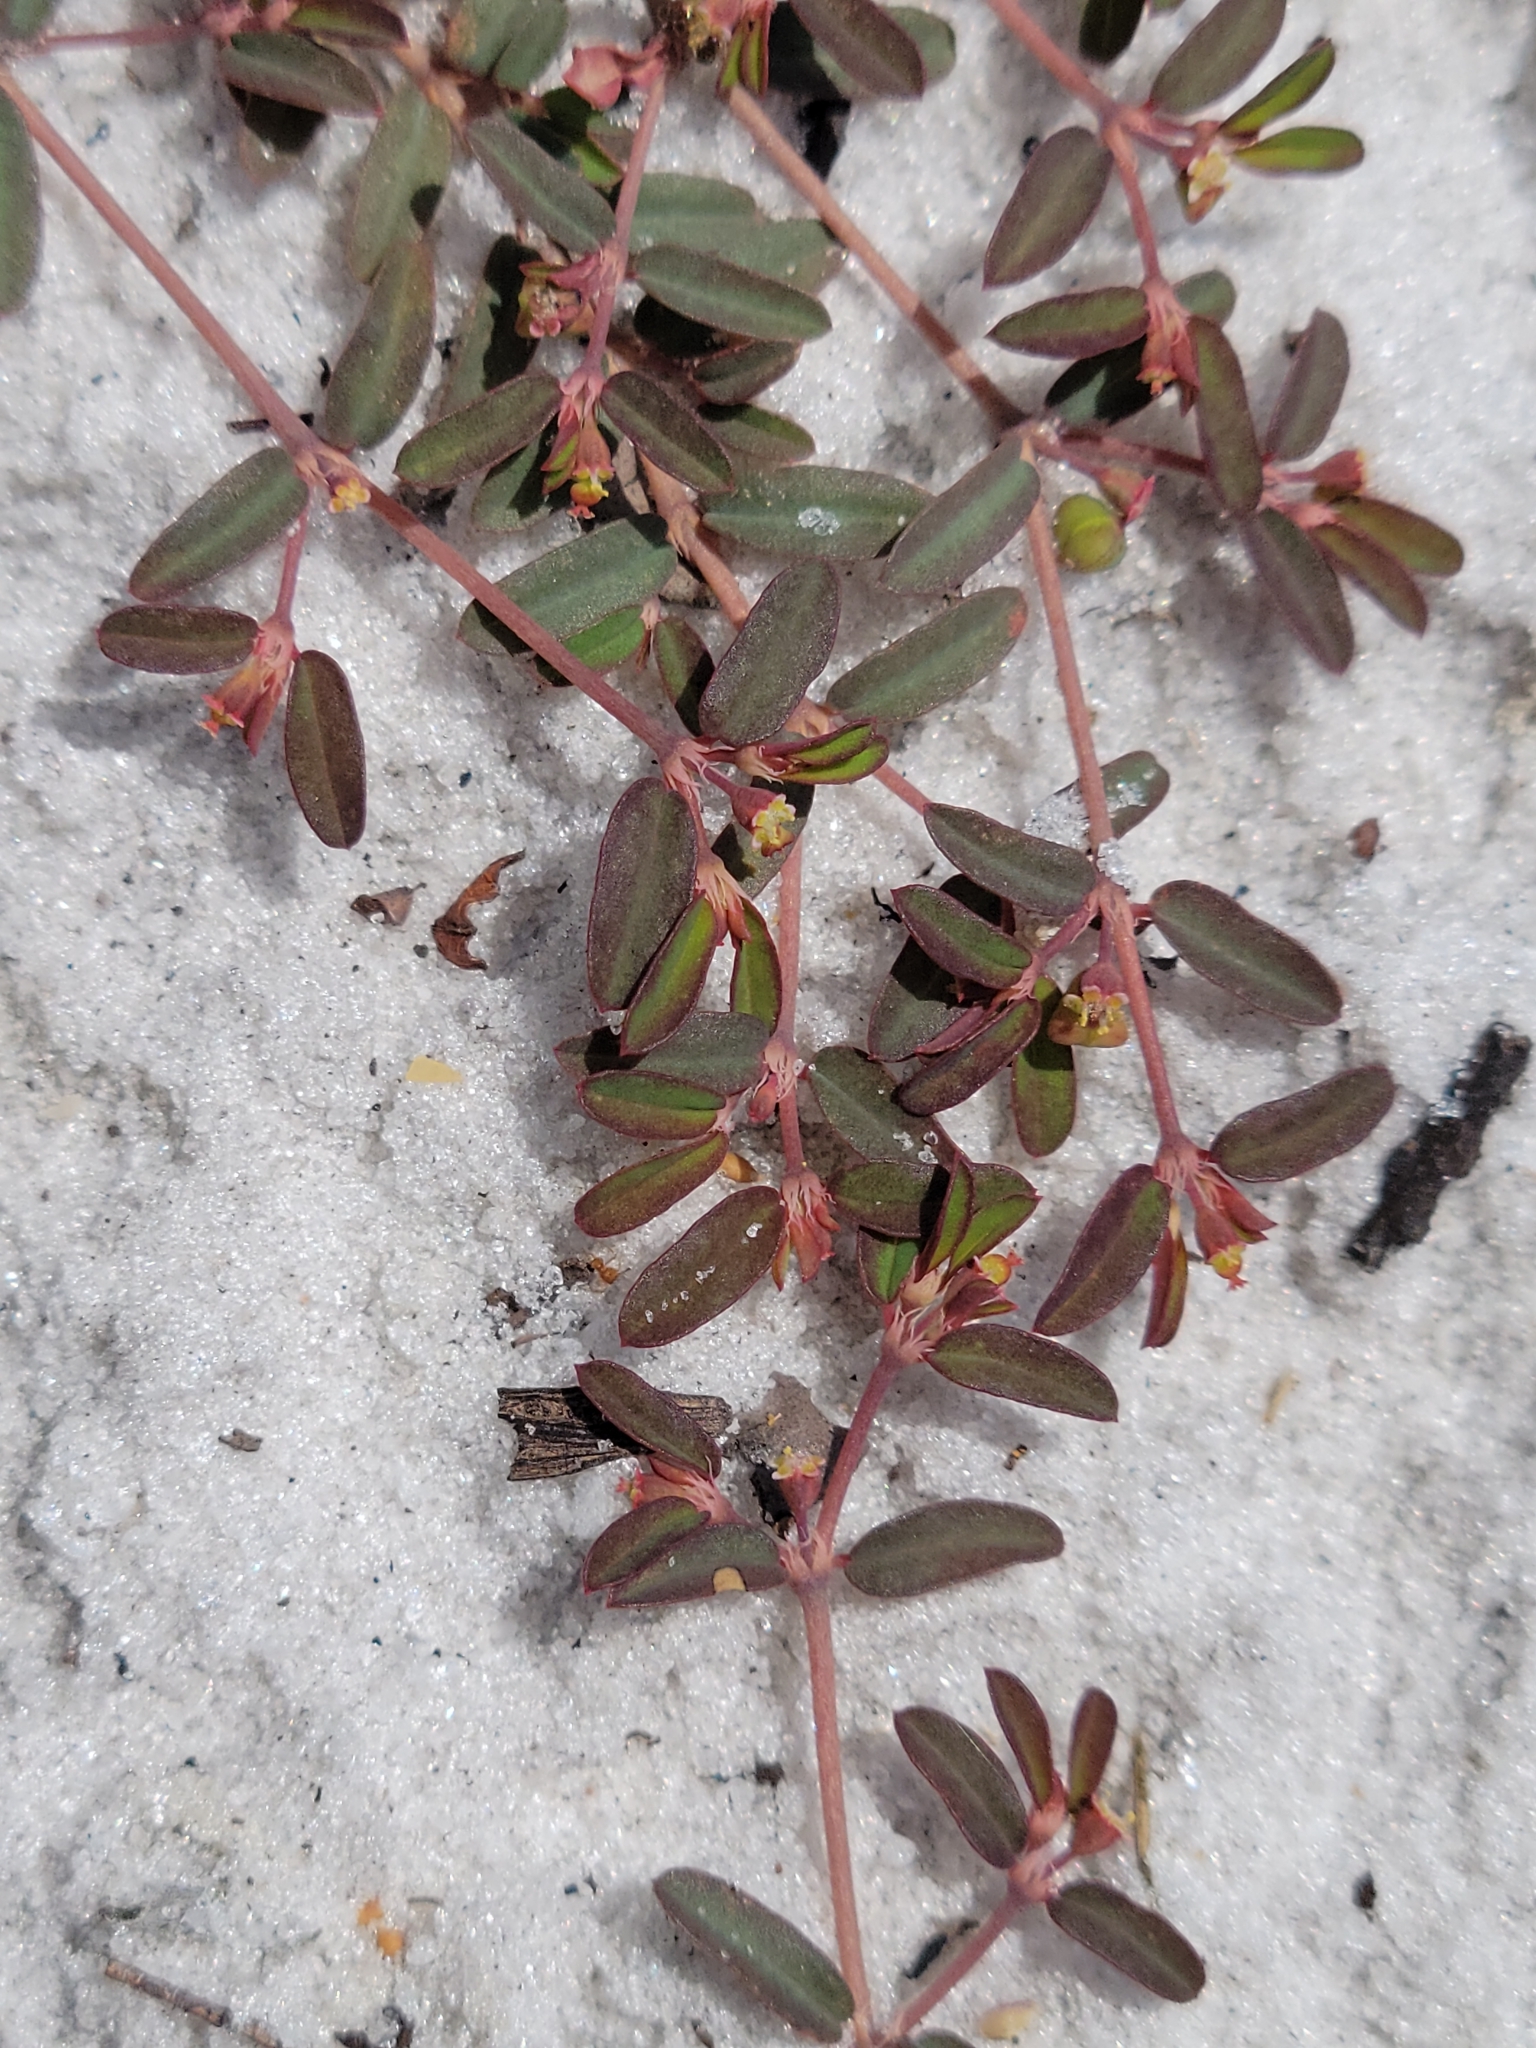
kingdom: Plantae
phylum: Tracheophyta
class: Magnoliopsida
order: Malpighiales
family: Euphorbiaceae
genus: Euphorbia
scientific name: Euphorbia cumulicola
